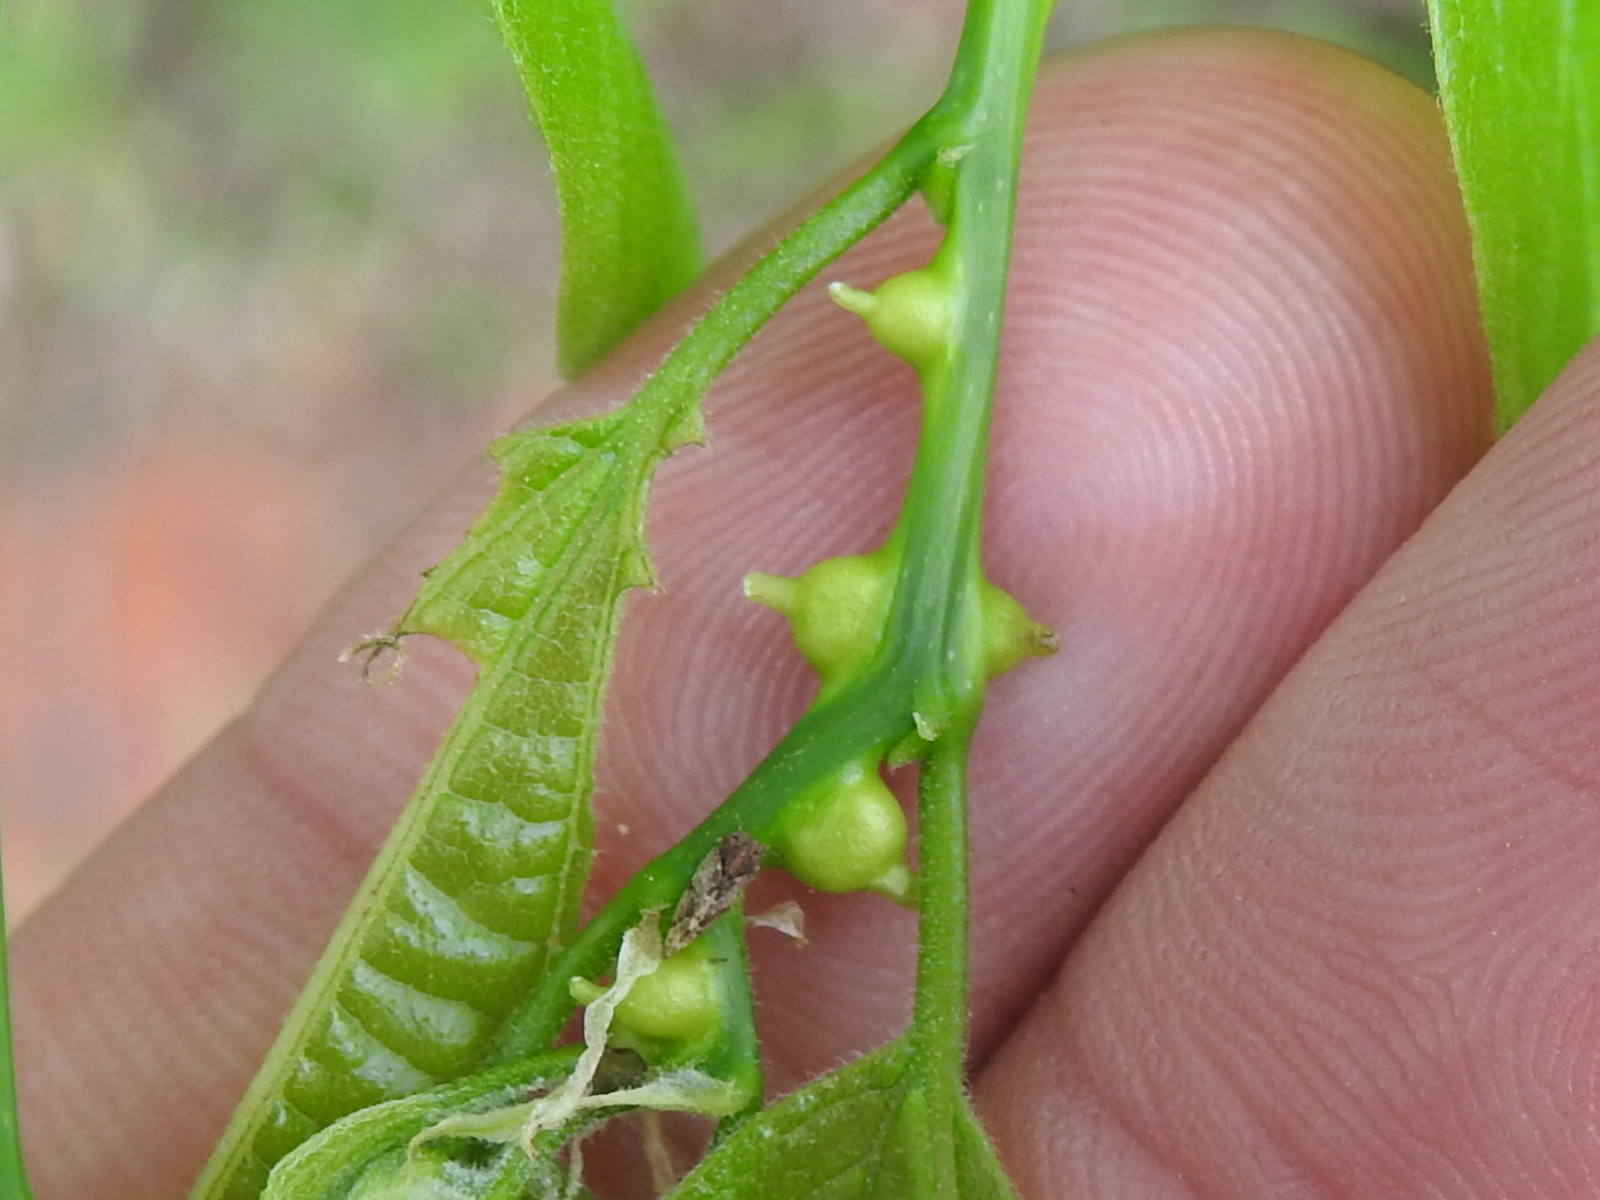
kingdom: Animalia
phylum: Arthropoda
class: Insecta
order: Diptera
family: Cecidomyiidae
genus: Celticecis
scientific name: Celticecis expulsa
